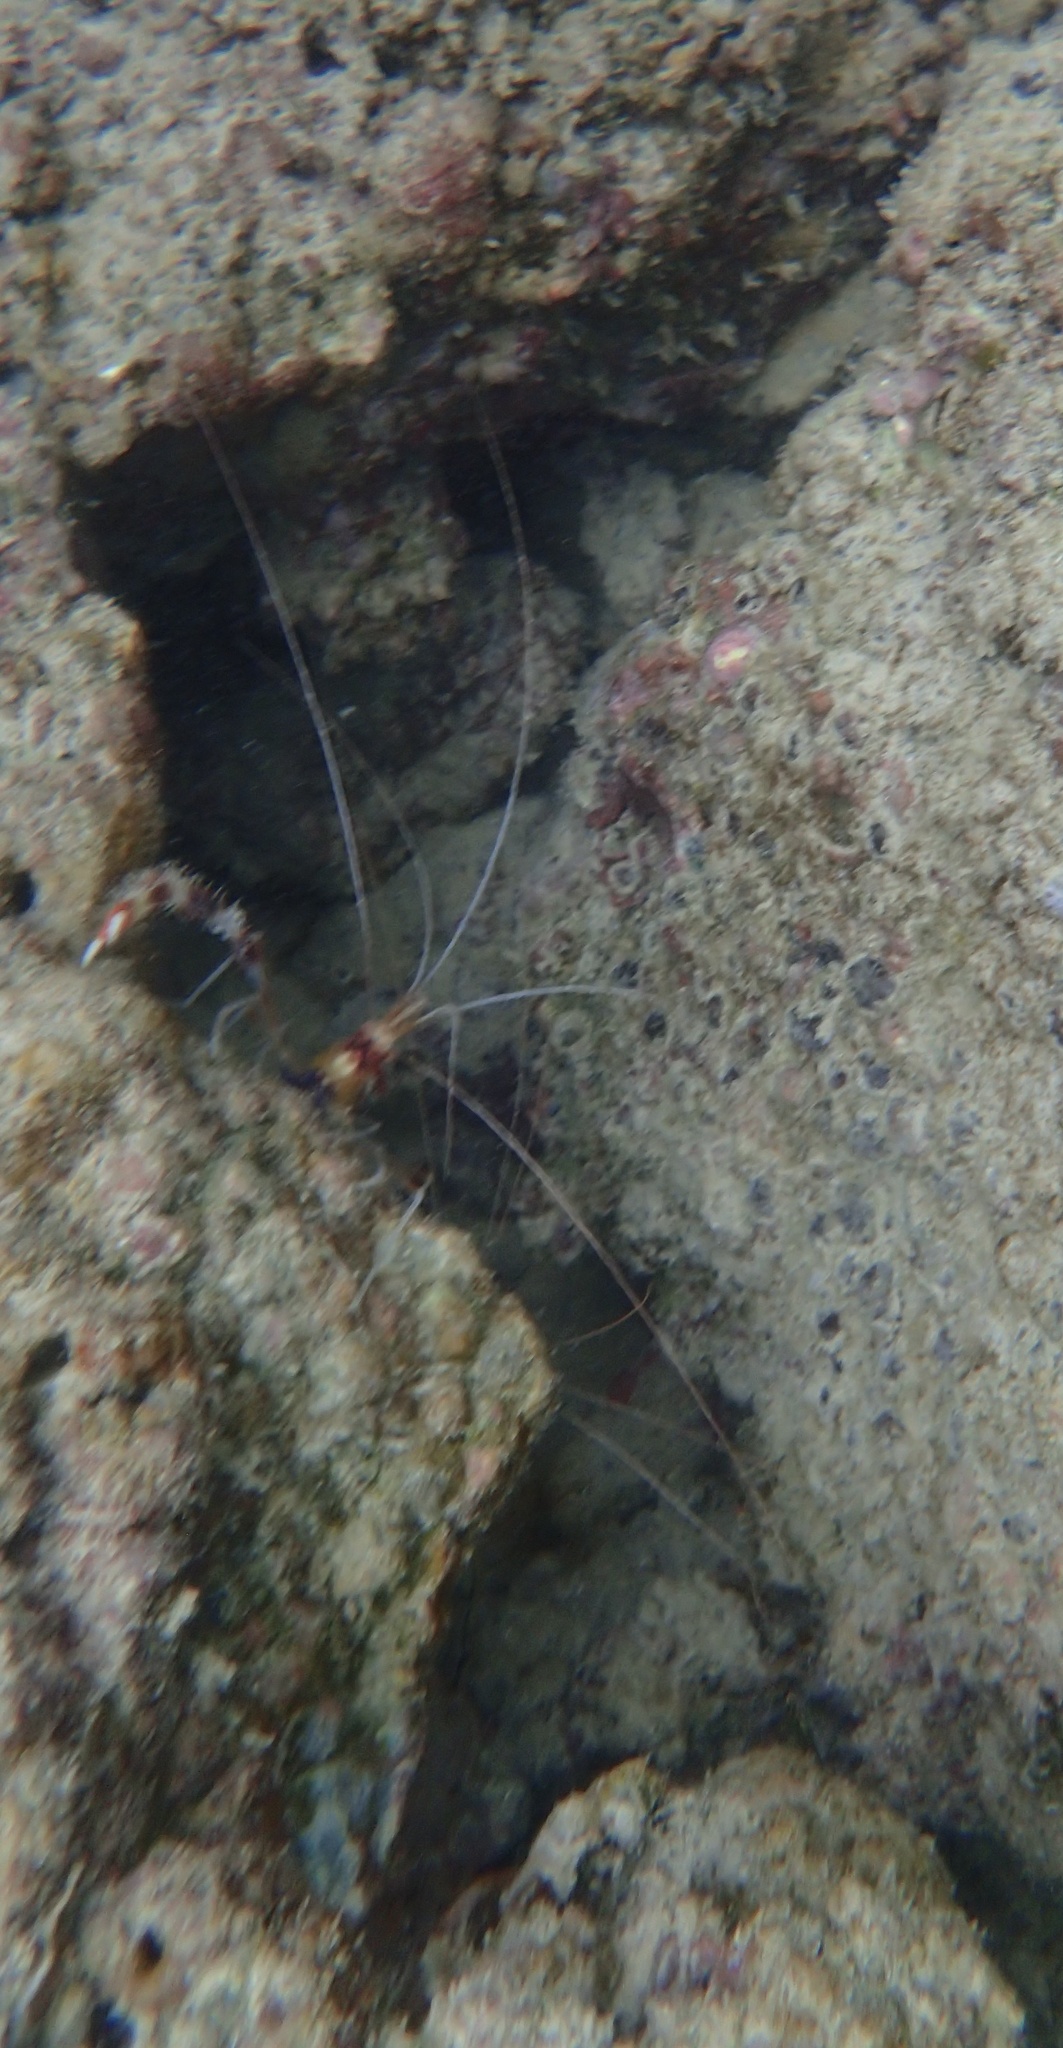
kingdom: Animalia
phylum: Arthropoda
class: Malacostraca
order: Decapoda
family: Stenopodidae
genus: Stenopus
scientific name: Stenopus hispidus
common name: Banded coral shrimp
